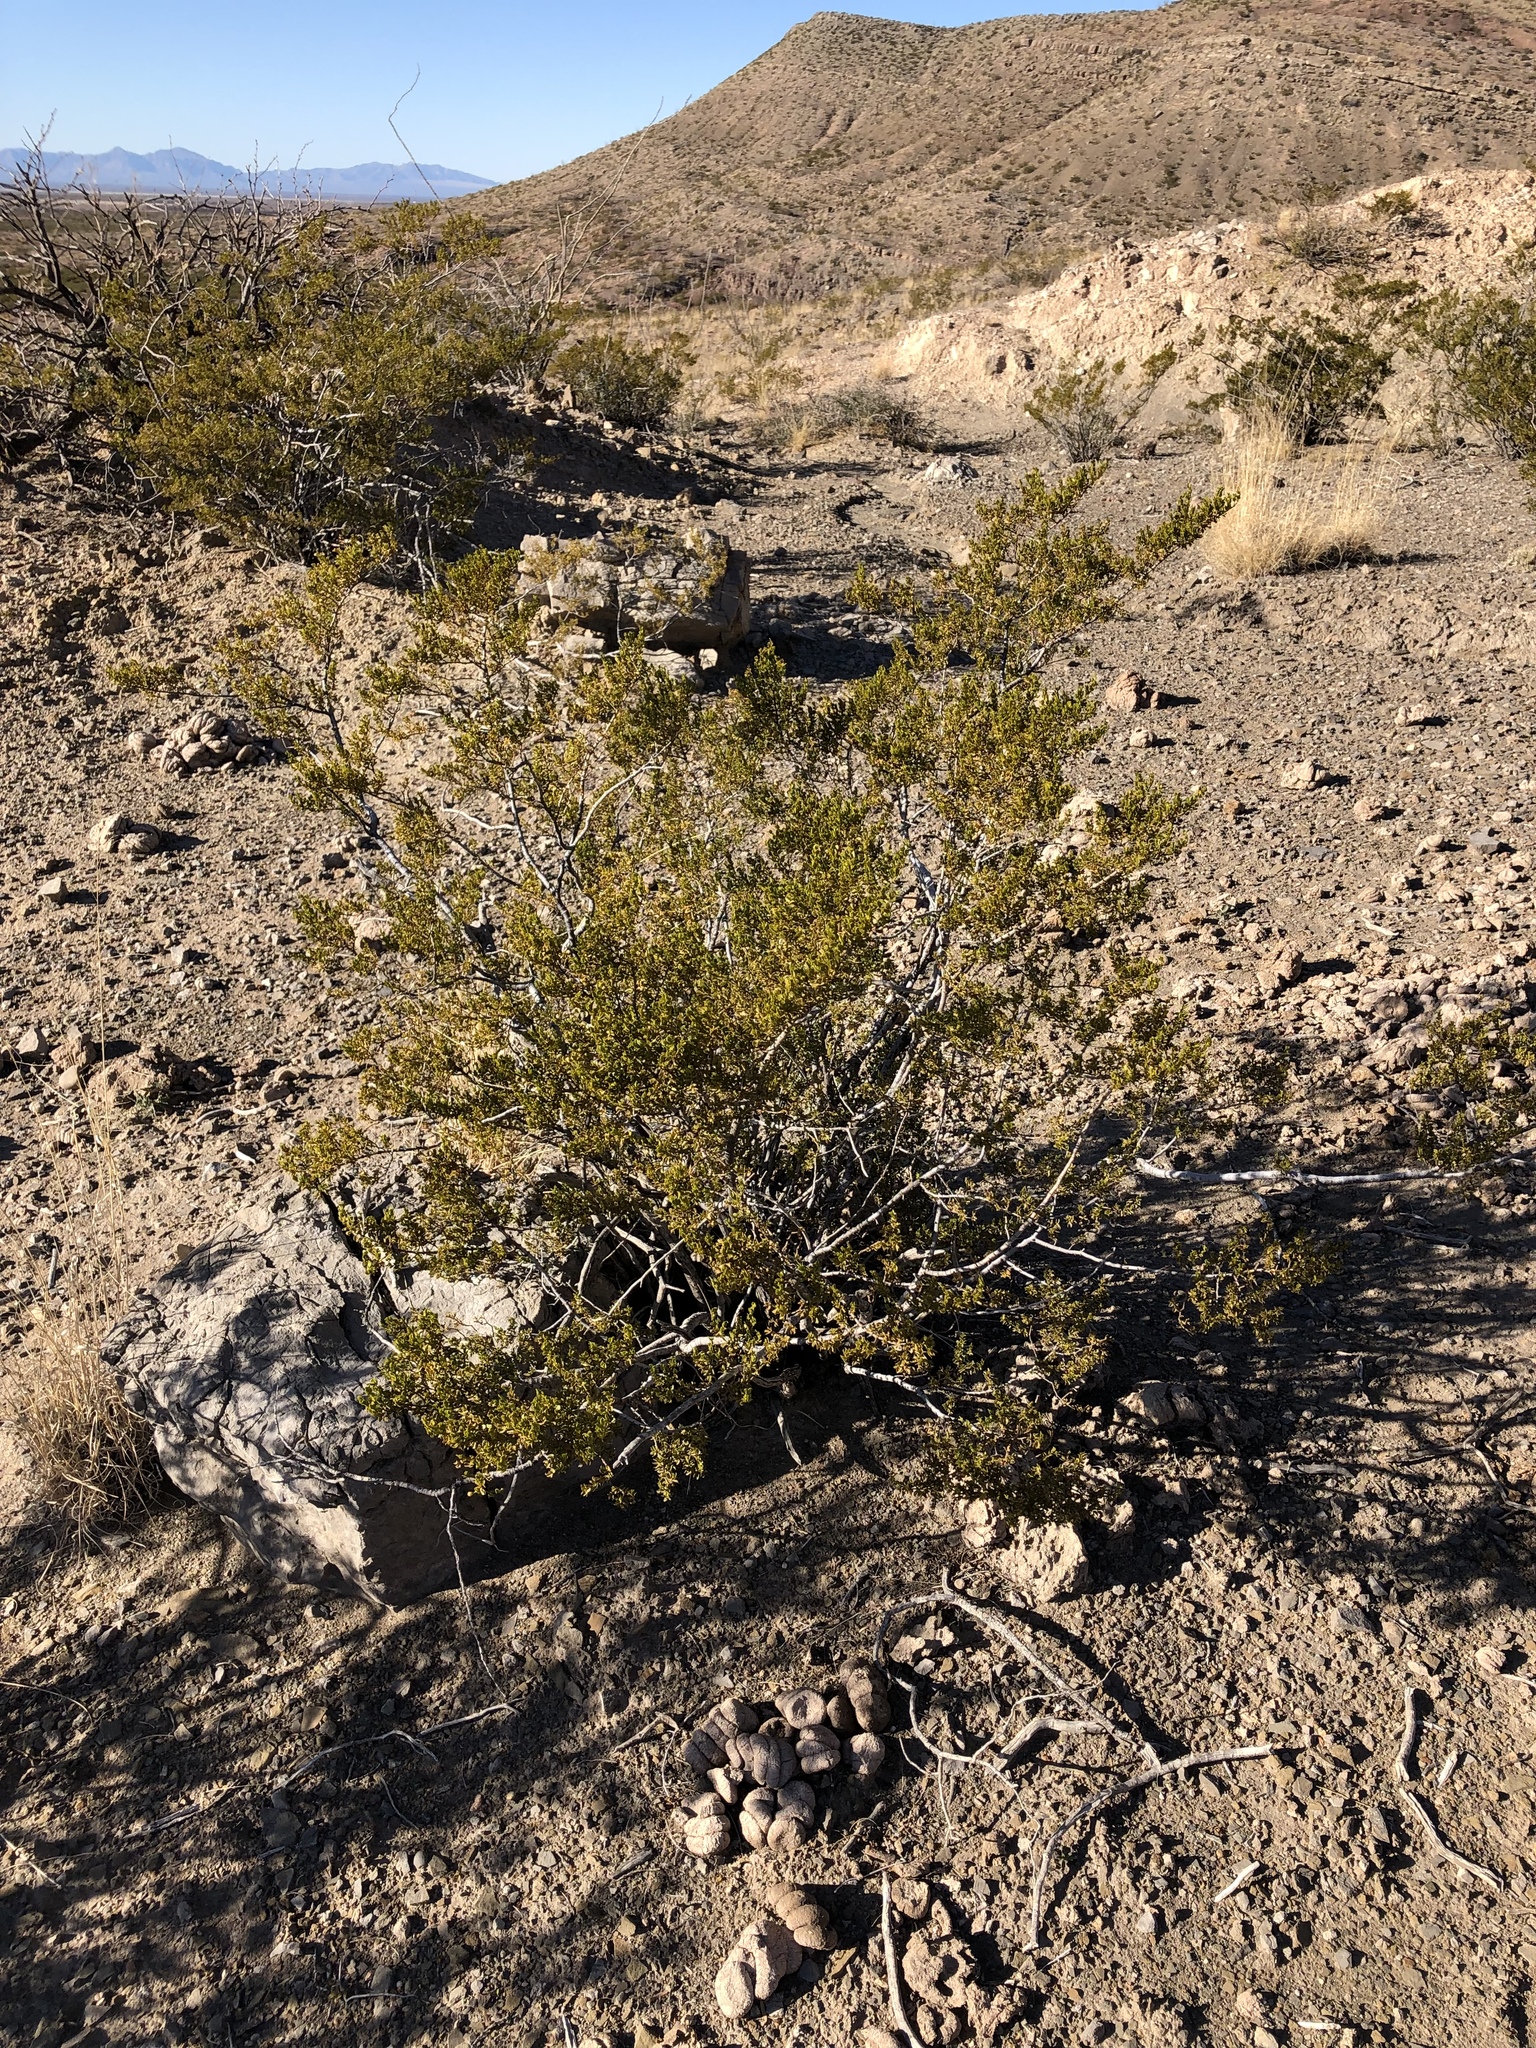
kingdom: Plantae
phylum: Tracheophyta
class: Magnoliopsida
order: Zygophyllales
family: Zygophyllaceae
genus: Larrea
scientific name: Larrea tridentata
